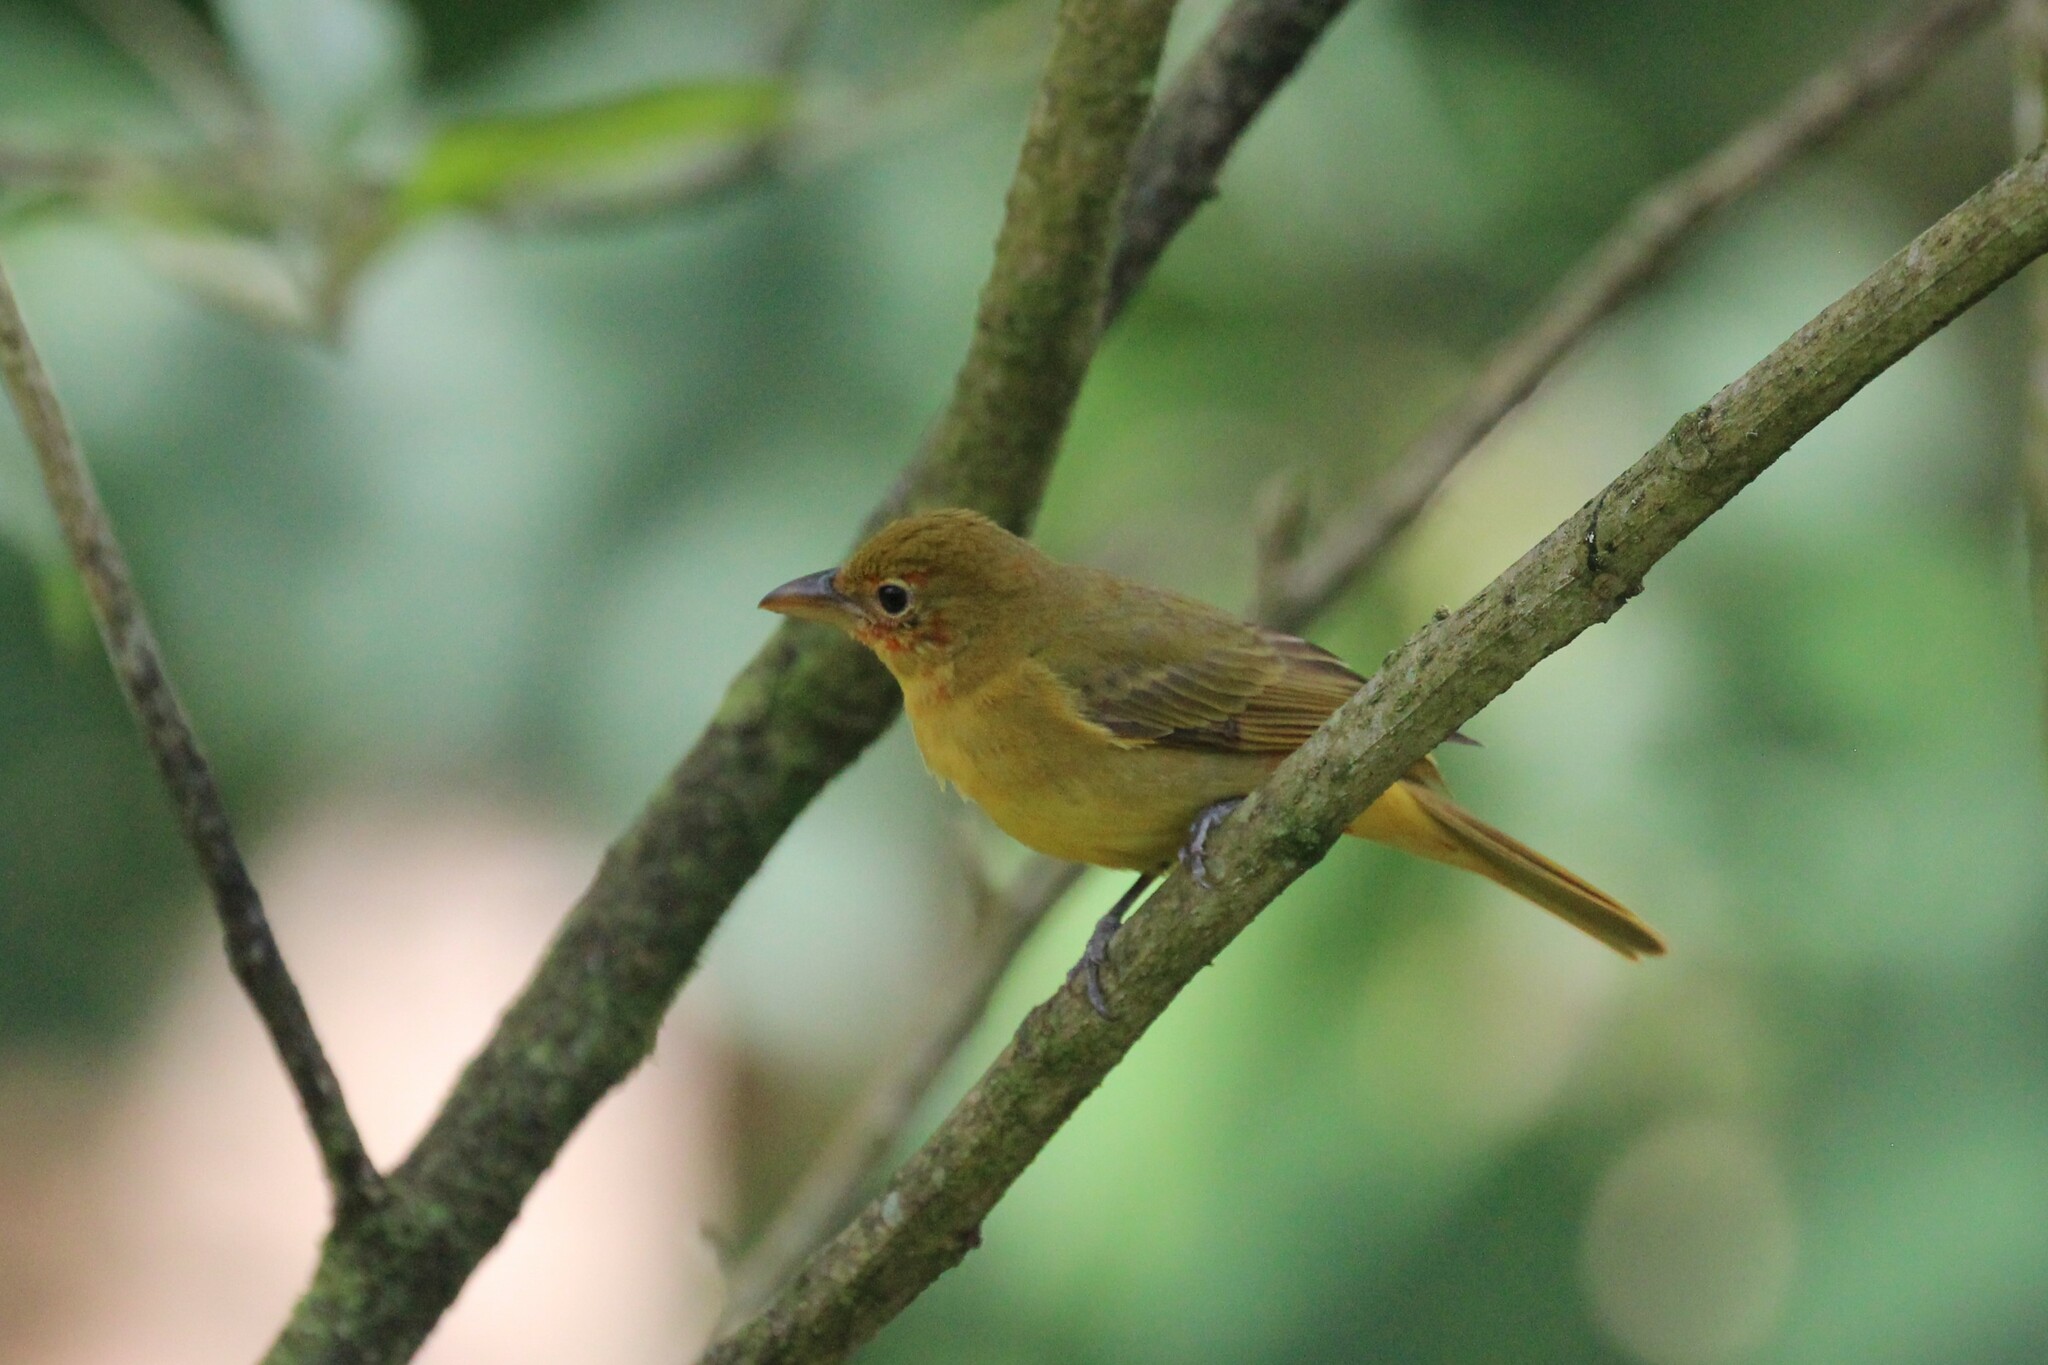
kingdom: Animalia
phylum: Chordata
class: Aves
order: Passeriformes
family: Cardinalidae
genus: Piranga
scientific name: Piranga rubra
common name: Summer tanager
